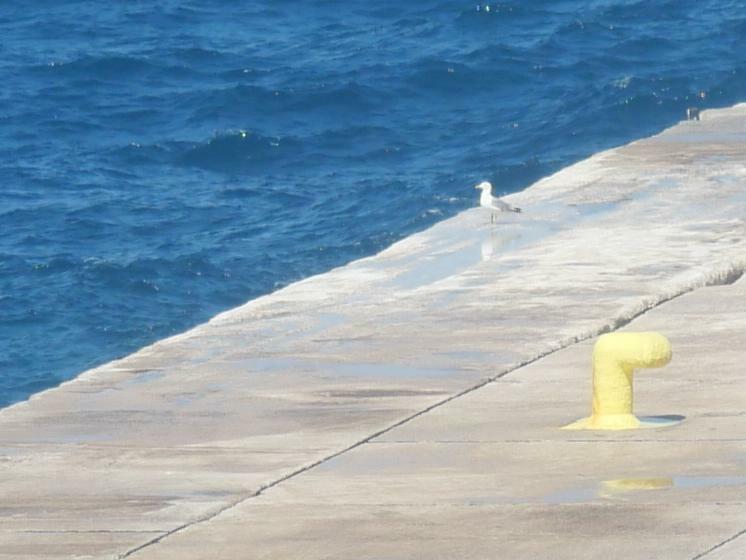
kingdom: Animalia
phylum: Chordata
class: Aves
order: Charadriiformes
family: Laridae
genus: Larus
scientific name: Larus michahellis
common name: Yellow-legged gull
